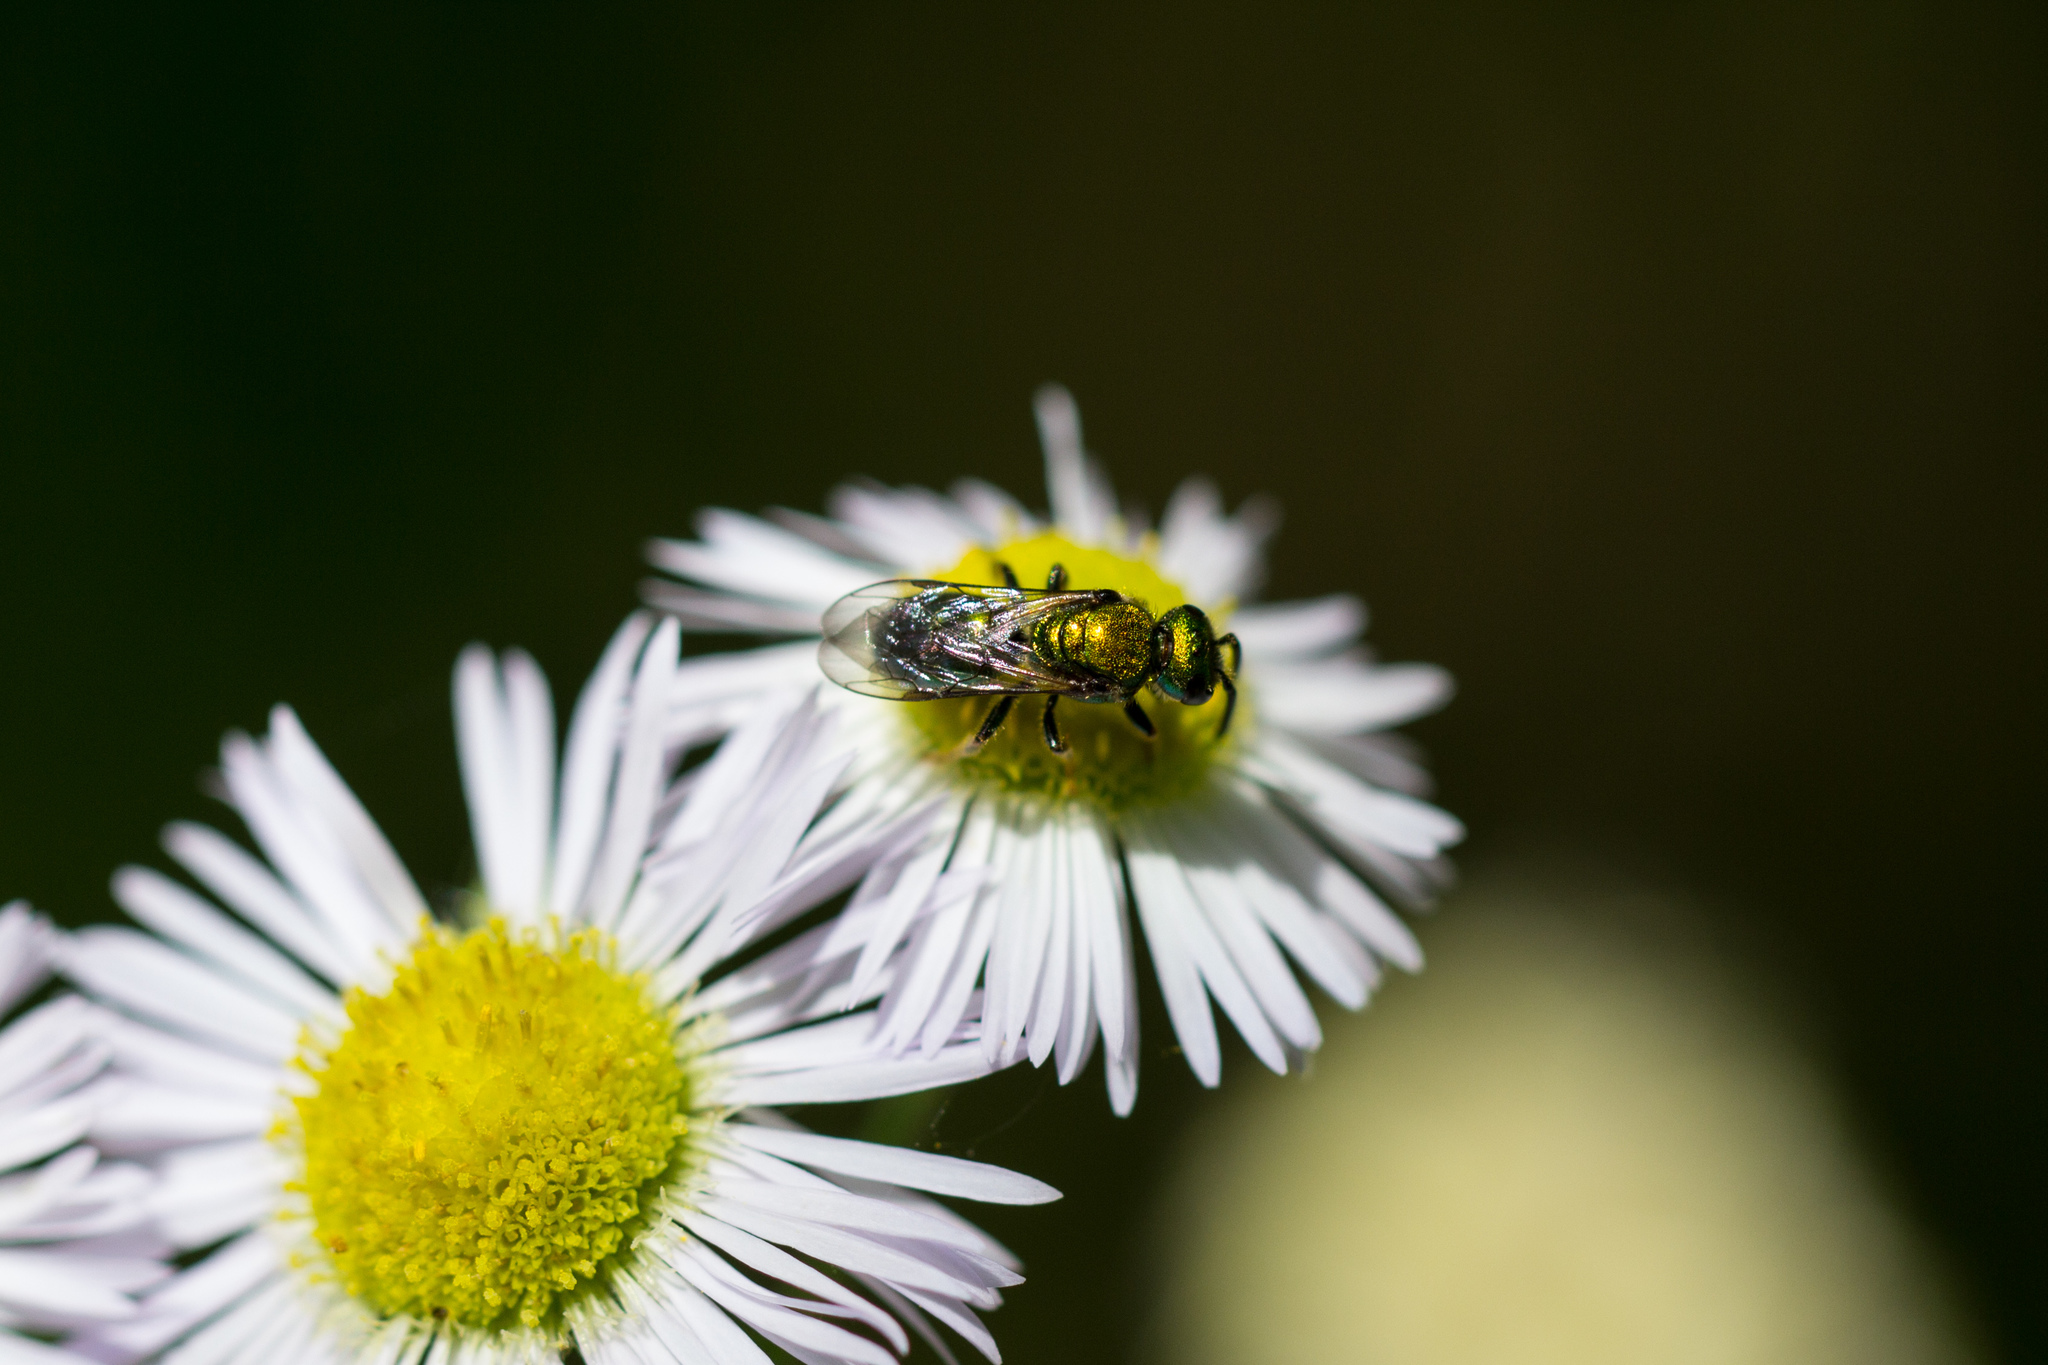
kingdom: Animalia
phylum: Arthropoda
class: Insecta
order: Hymenoptera
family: Halictidae
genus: Augochlora
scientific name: Augochlora pura
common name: Pure green sweat bee
